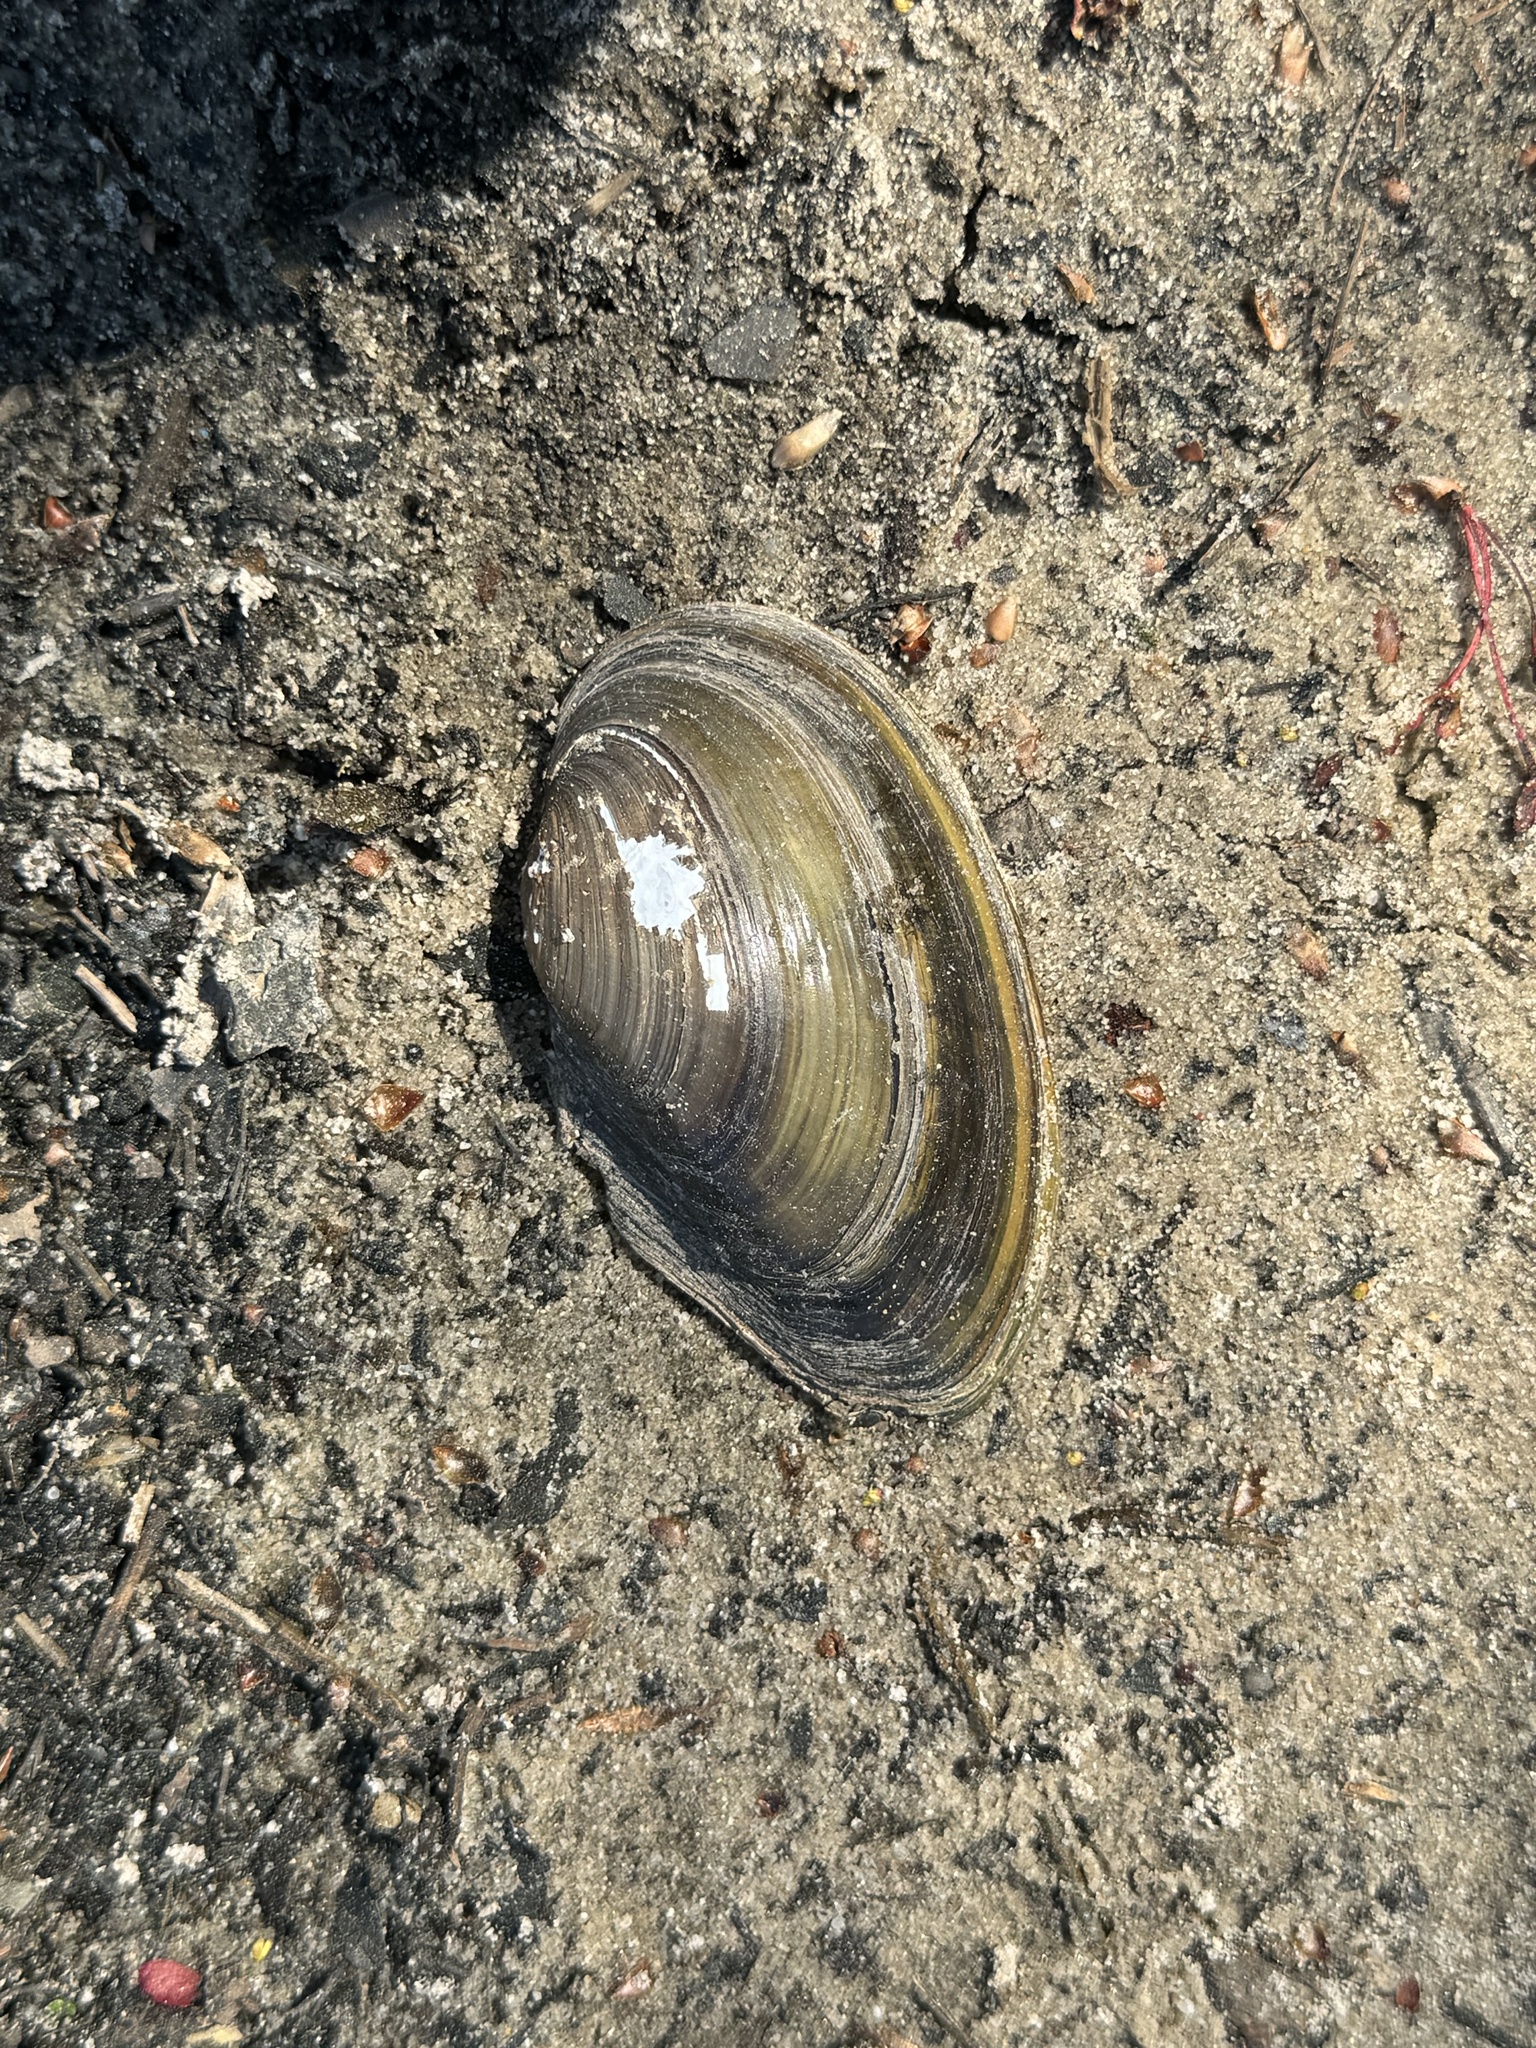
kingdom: Animalia
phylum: Mollusca
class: Bivalvia
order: Unionida
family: Unionidae
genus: Pyganodon
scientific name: Pyganodon cataracta
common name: Eastern floater
